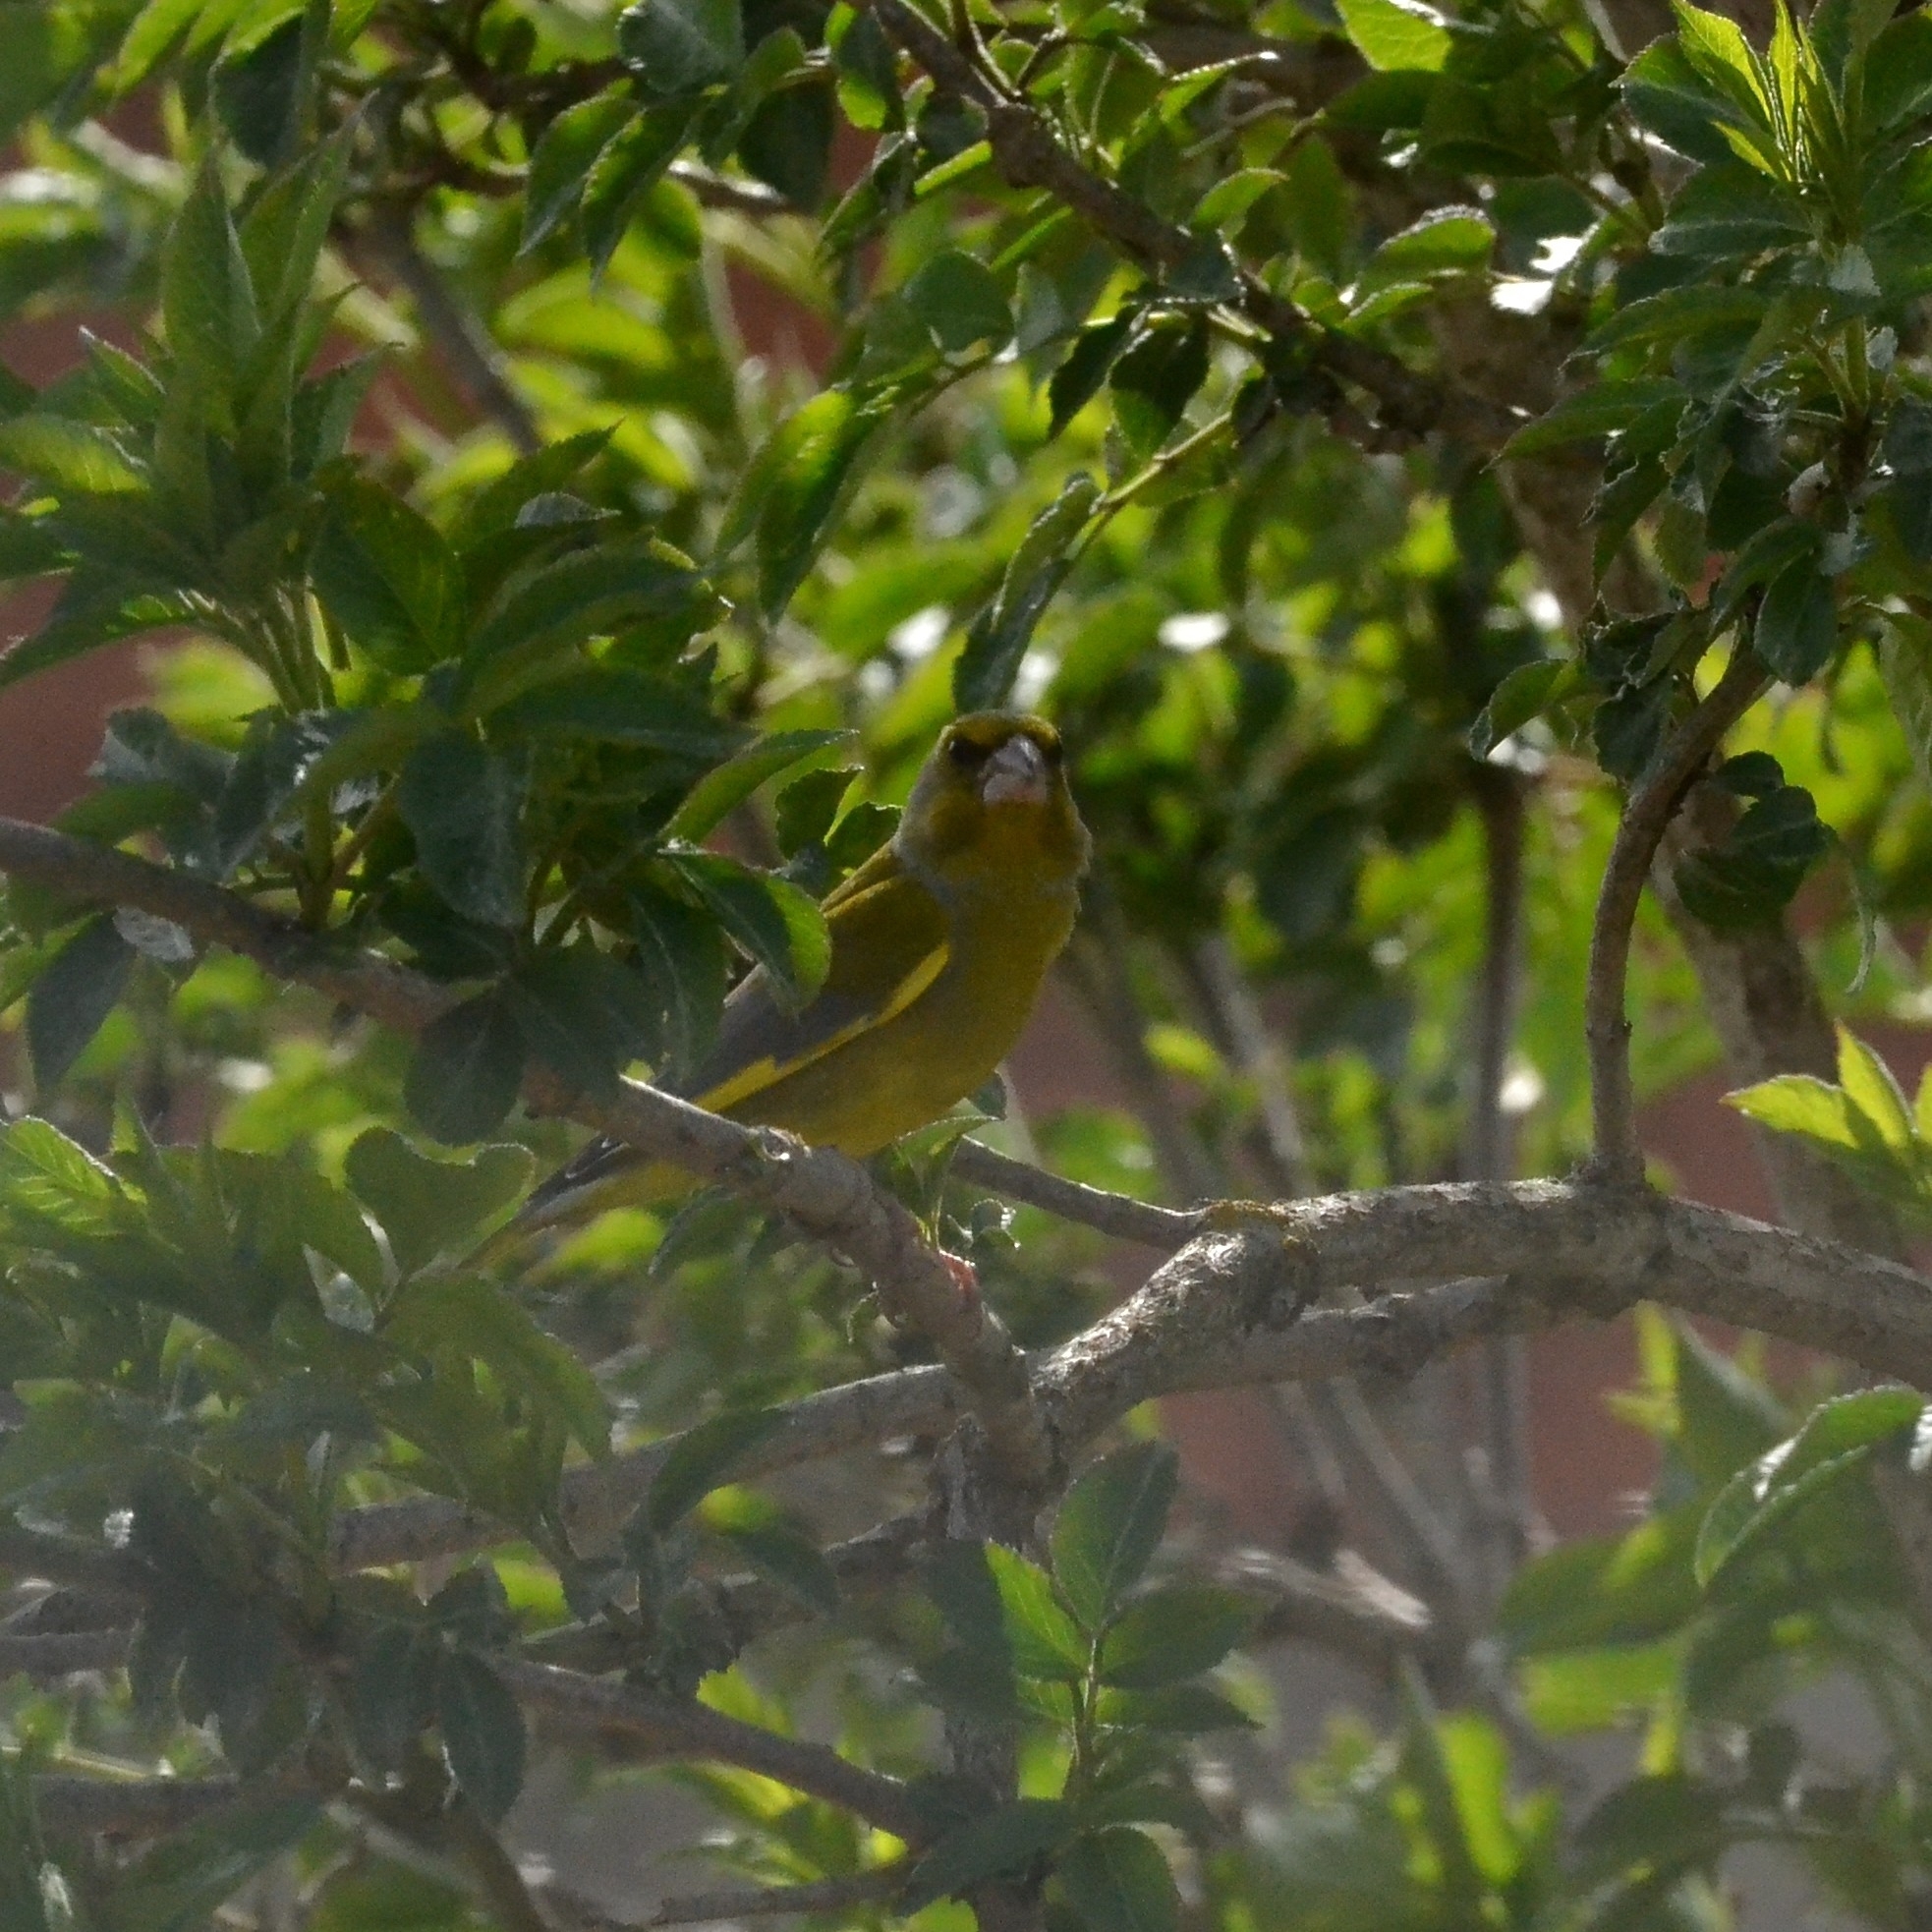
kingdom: Plantae
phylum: Tracheophyta
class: Liliopsida
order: Poales
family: Poaceae
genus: Chloris
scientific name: Chloris chloris
